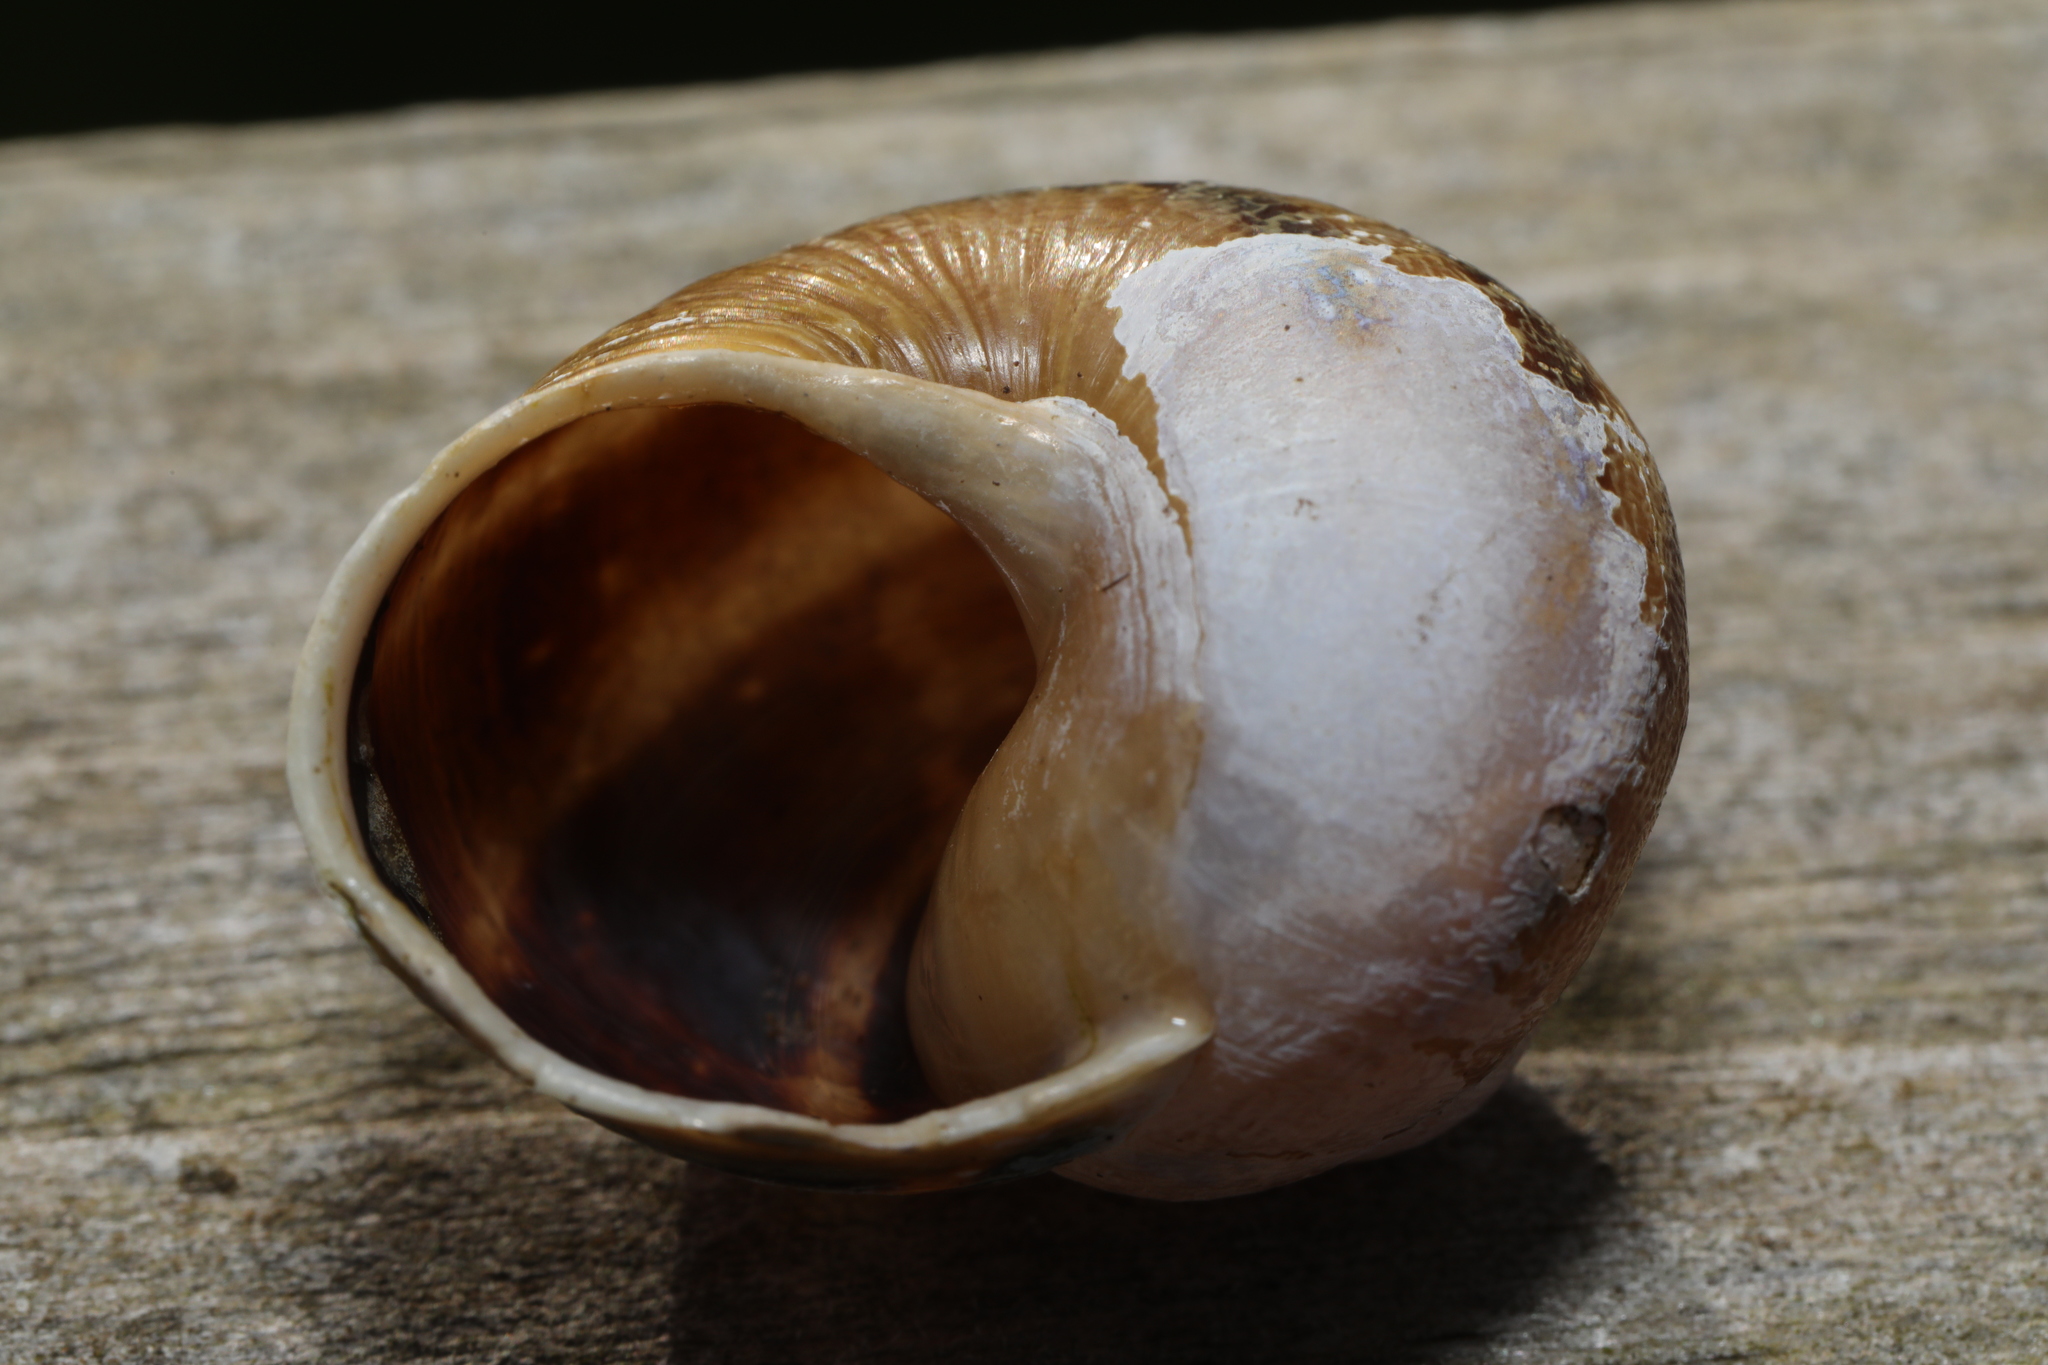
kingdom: Animalia
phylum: Mollusca
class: Gastropoda
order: Stylommatophora
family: Helicidae
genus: Cornu
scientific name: Cornu aspersum
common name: Brown garden snail
